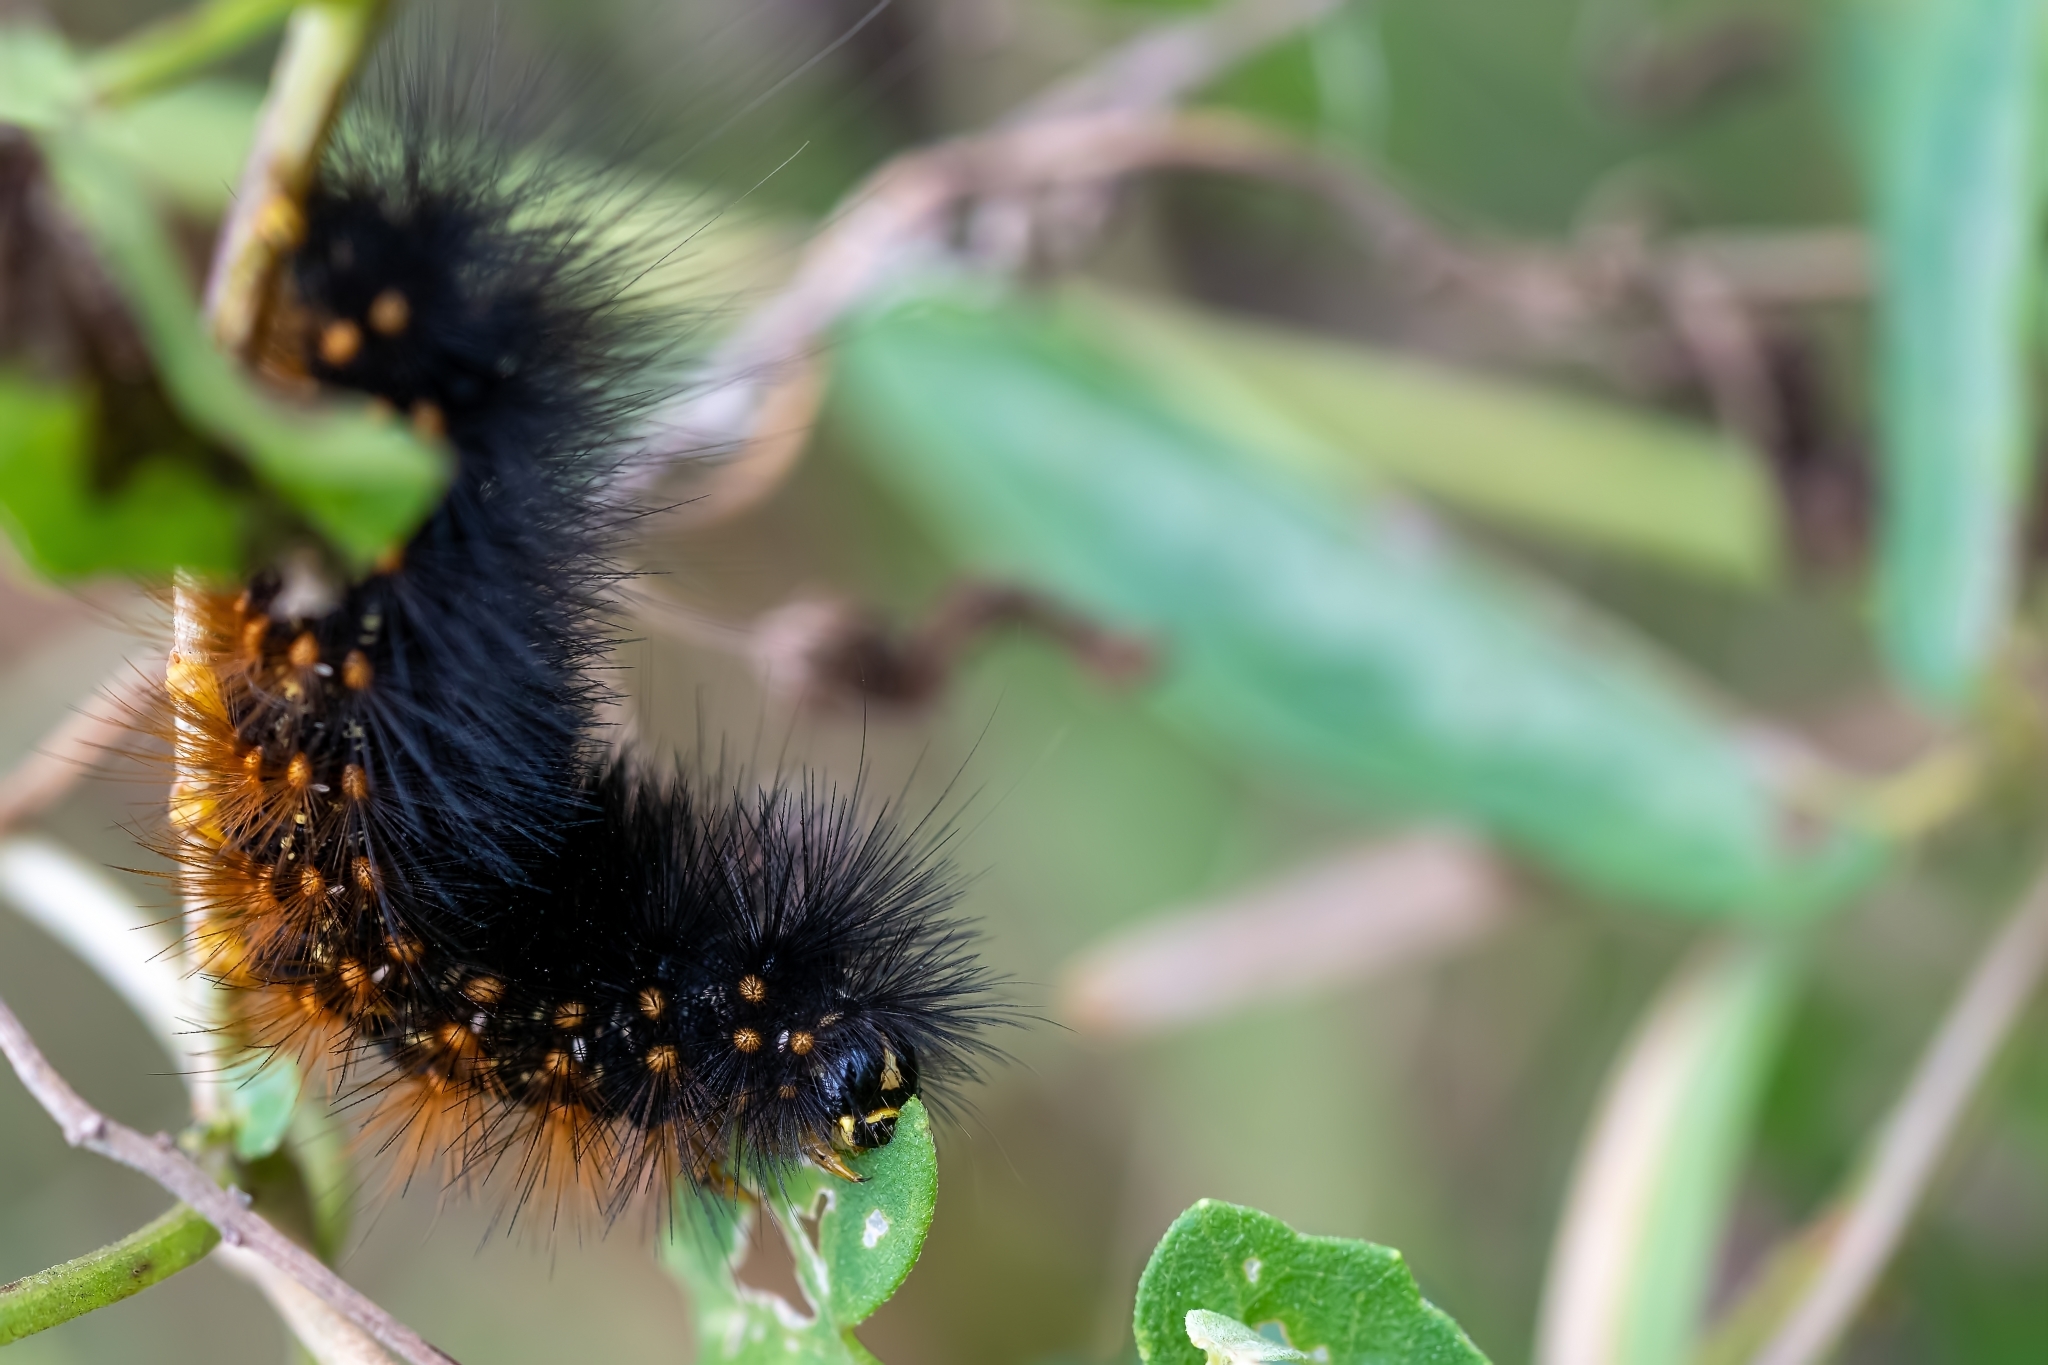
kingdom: Animalia
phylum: Arthropoda
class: Insecta
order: Lepidoptera
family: Erebidae
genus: Estigmene
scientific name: Estigmene acrea
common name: Salt marsh moth
